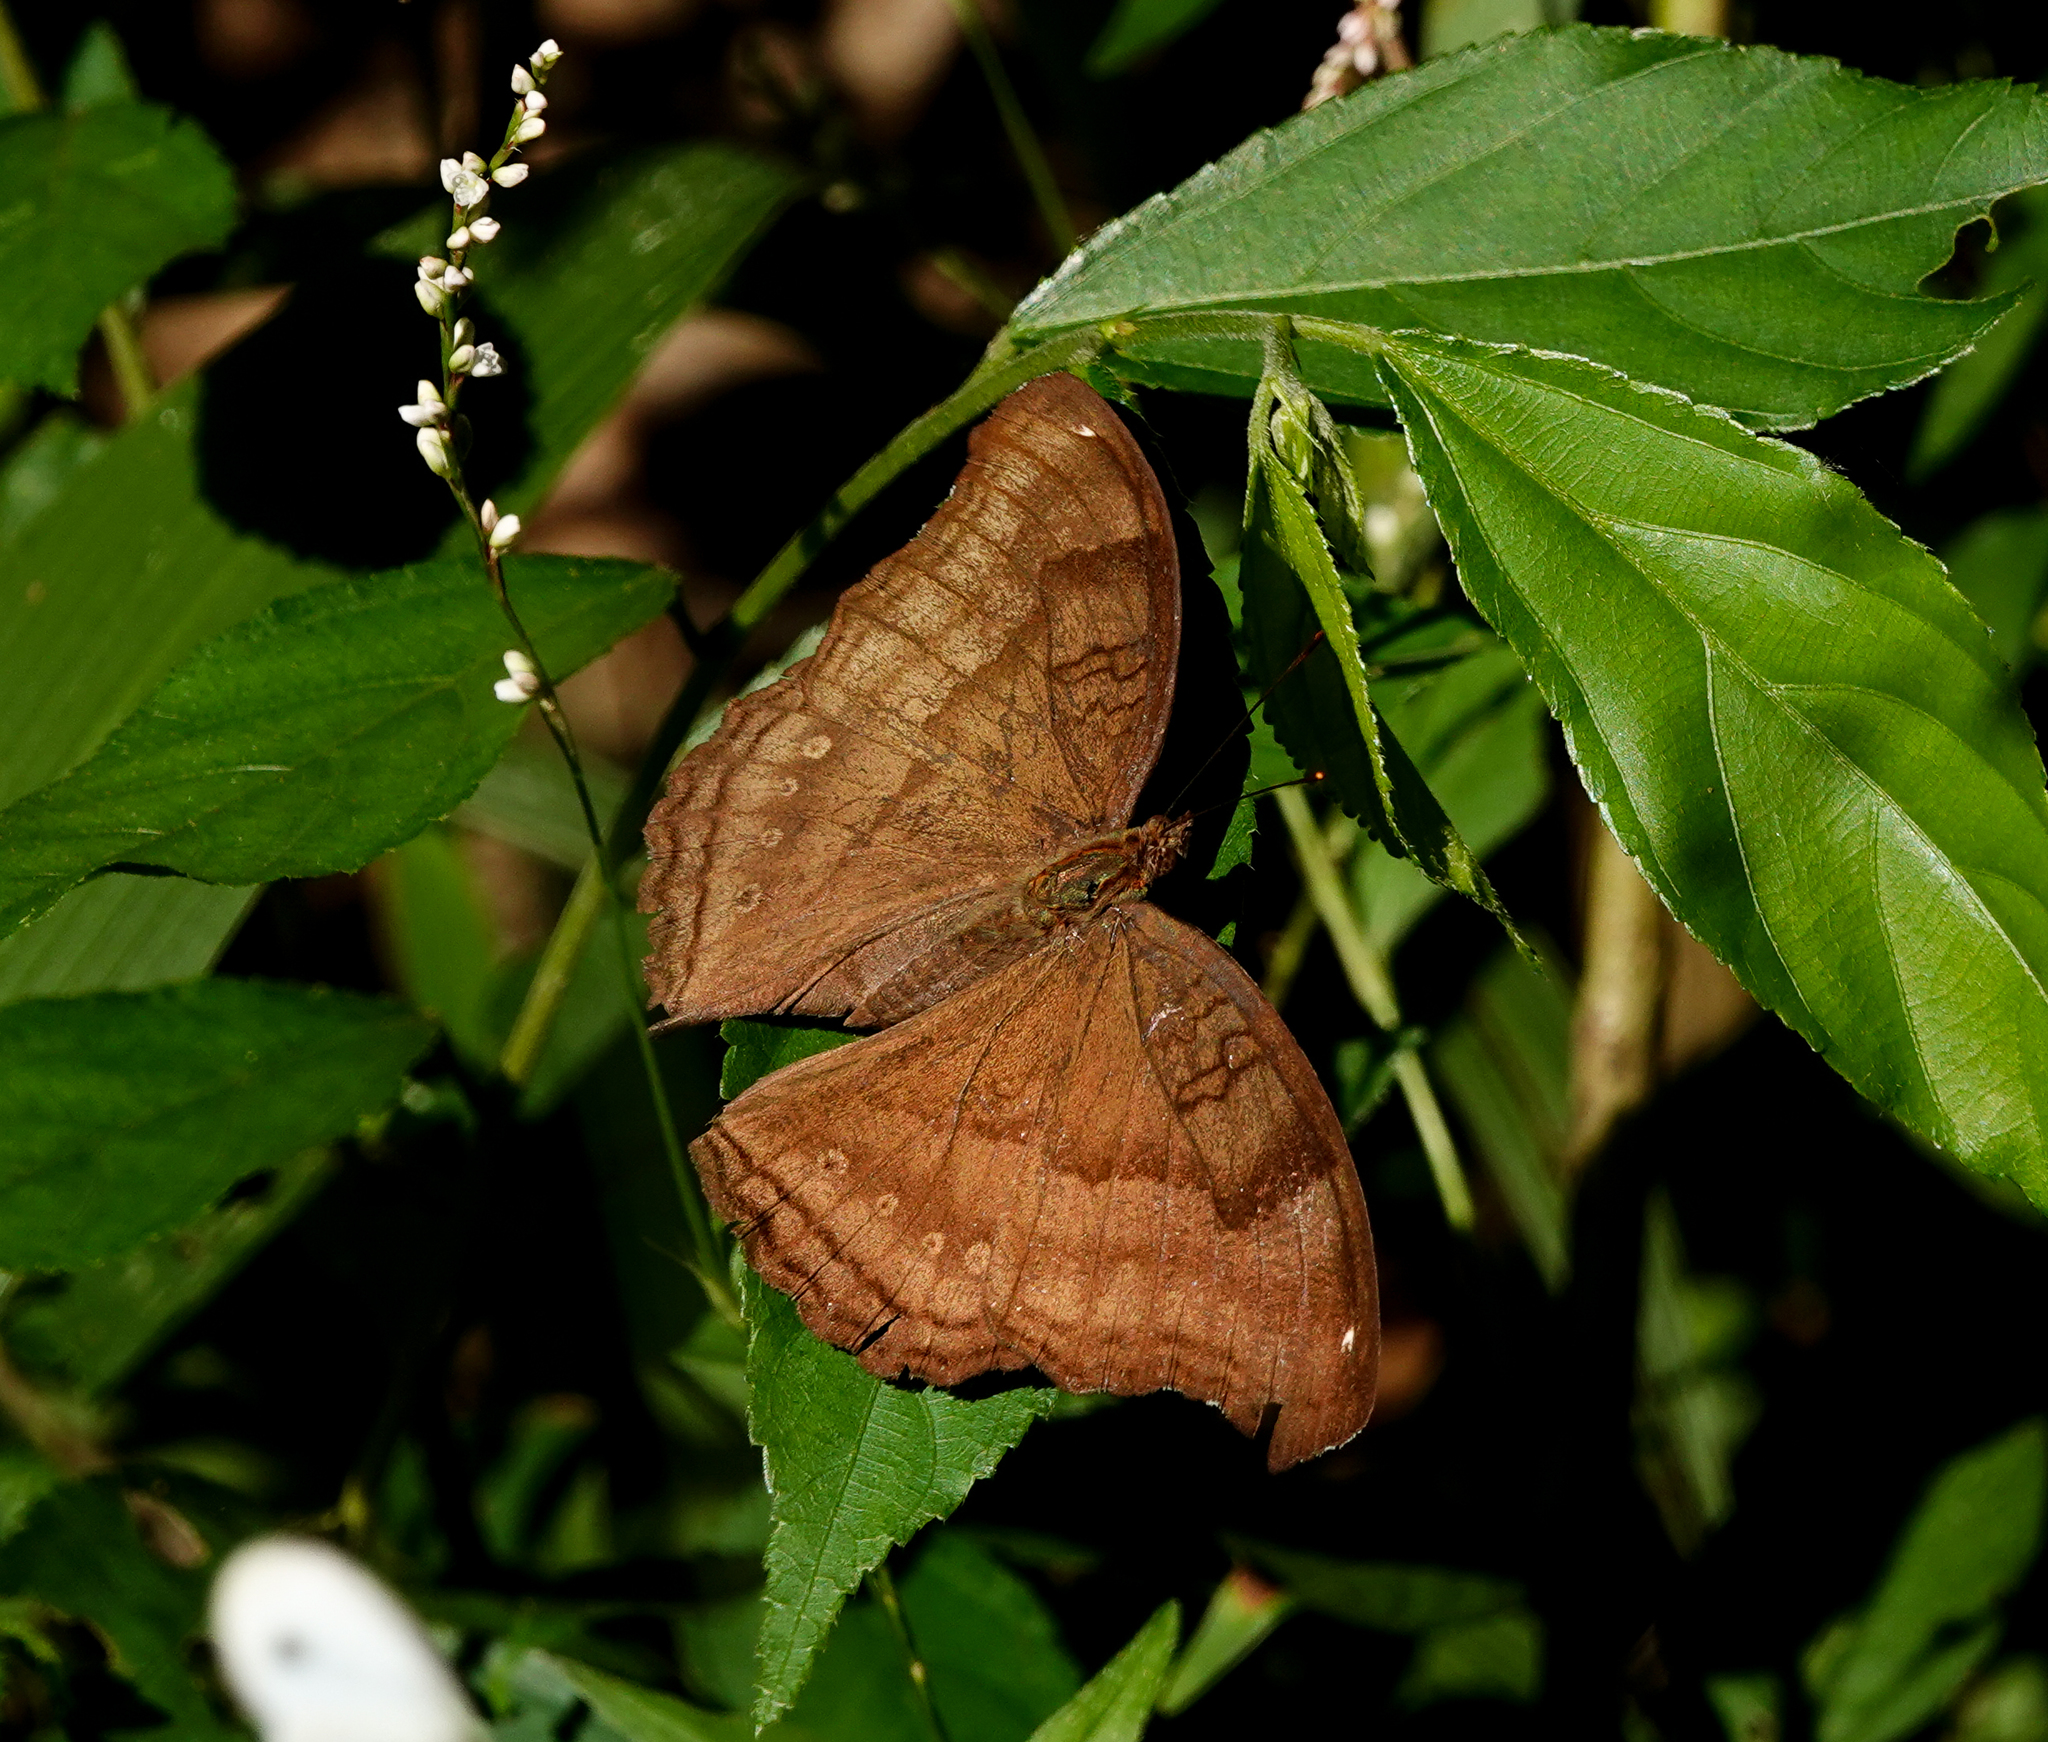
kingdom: Animalia
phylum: Arthropoda
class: Insecta
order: Lepidoptera
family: Nymphalidae
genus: Junonia
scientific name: Junonia iphita
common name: Chocolate pansy
